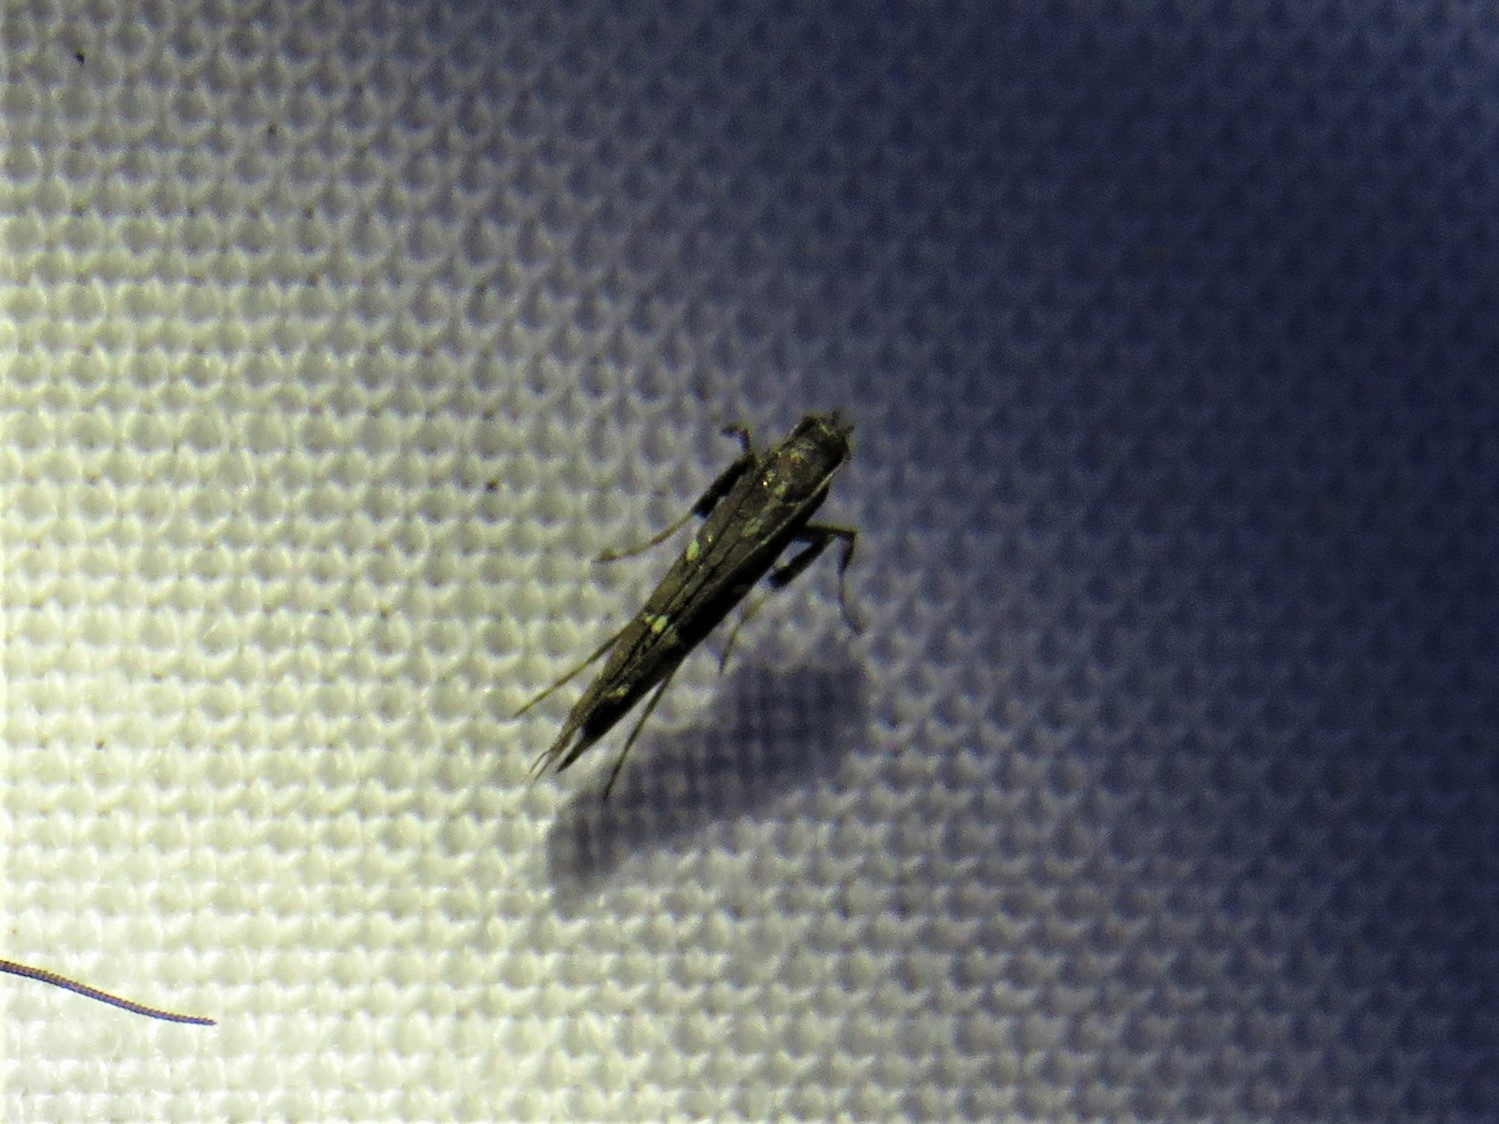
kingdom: Animalia
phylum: Arthropoda
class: Insecta
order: Lepidoptera
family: Gracillariidae
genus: Caloptilia
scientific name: Caloptilia triadicae
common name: Tallow leaf roller
